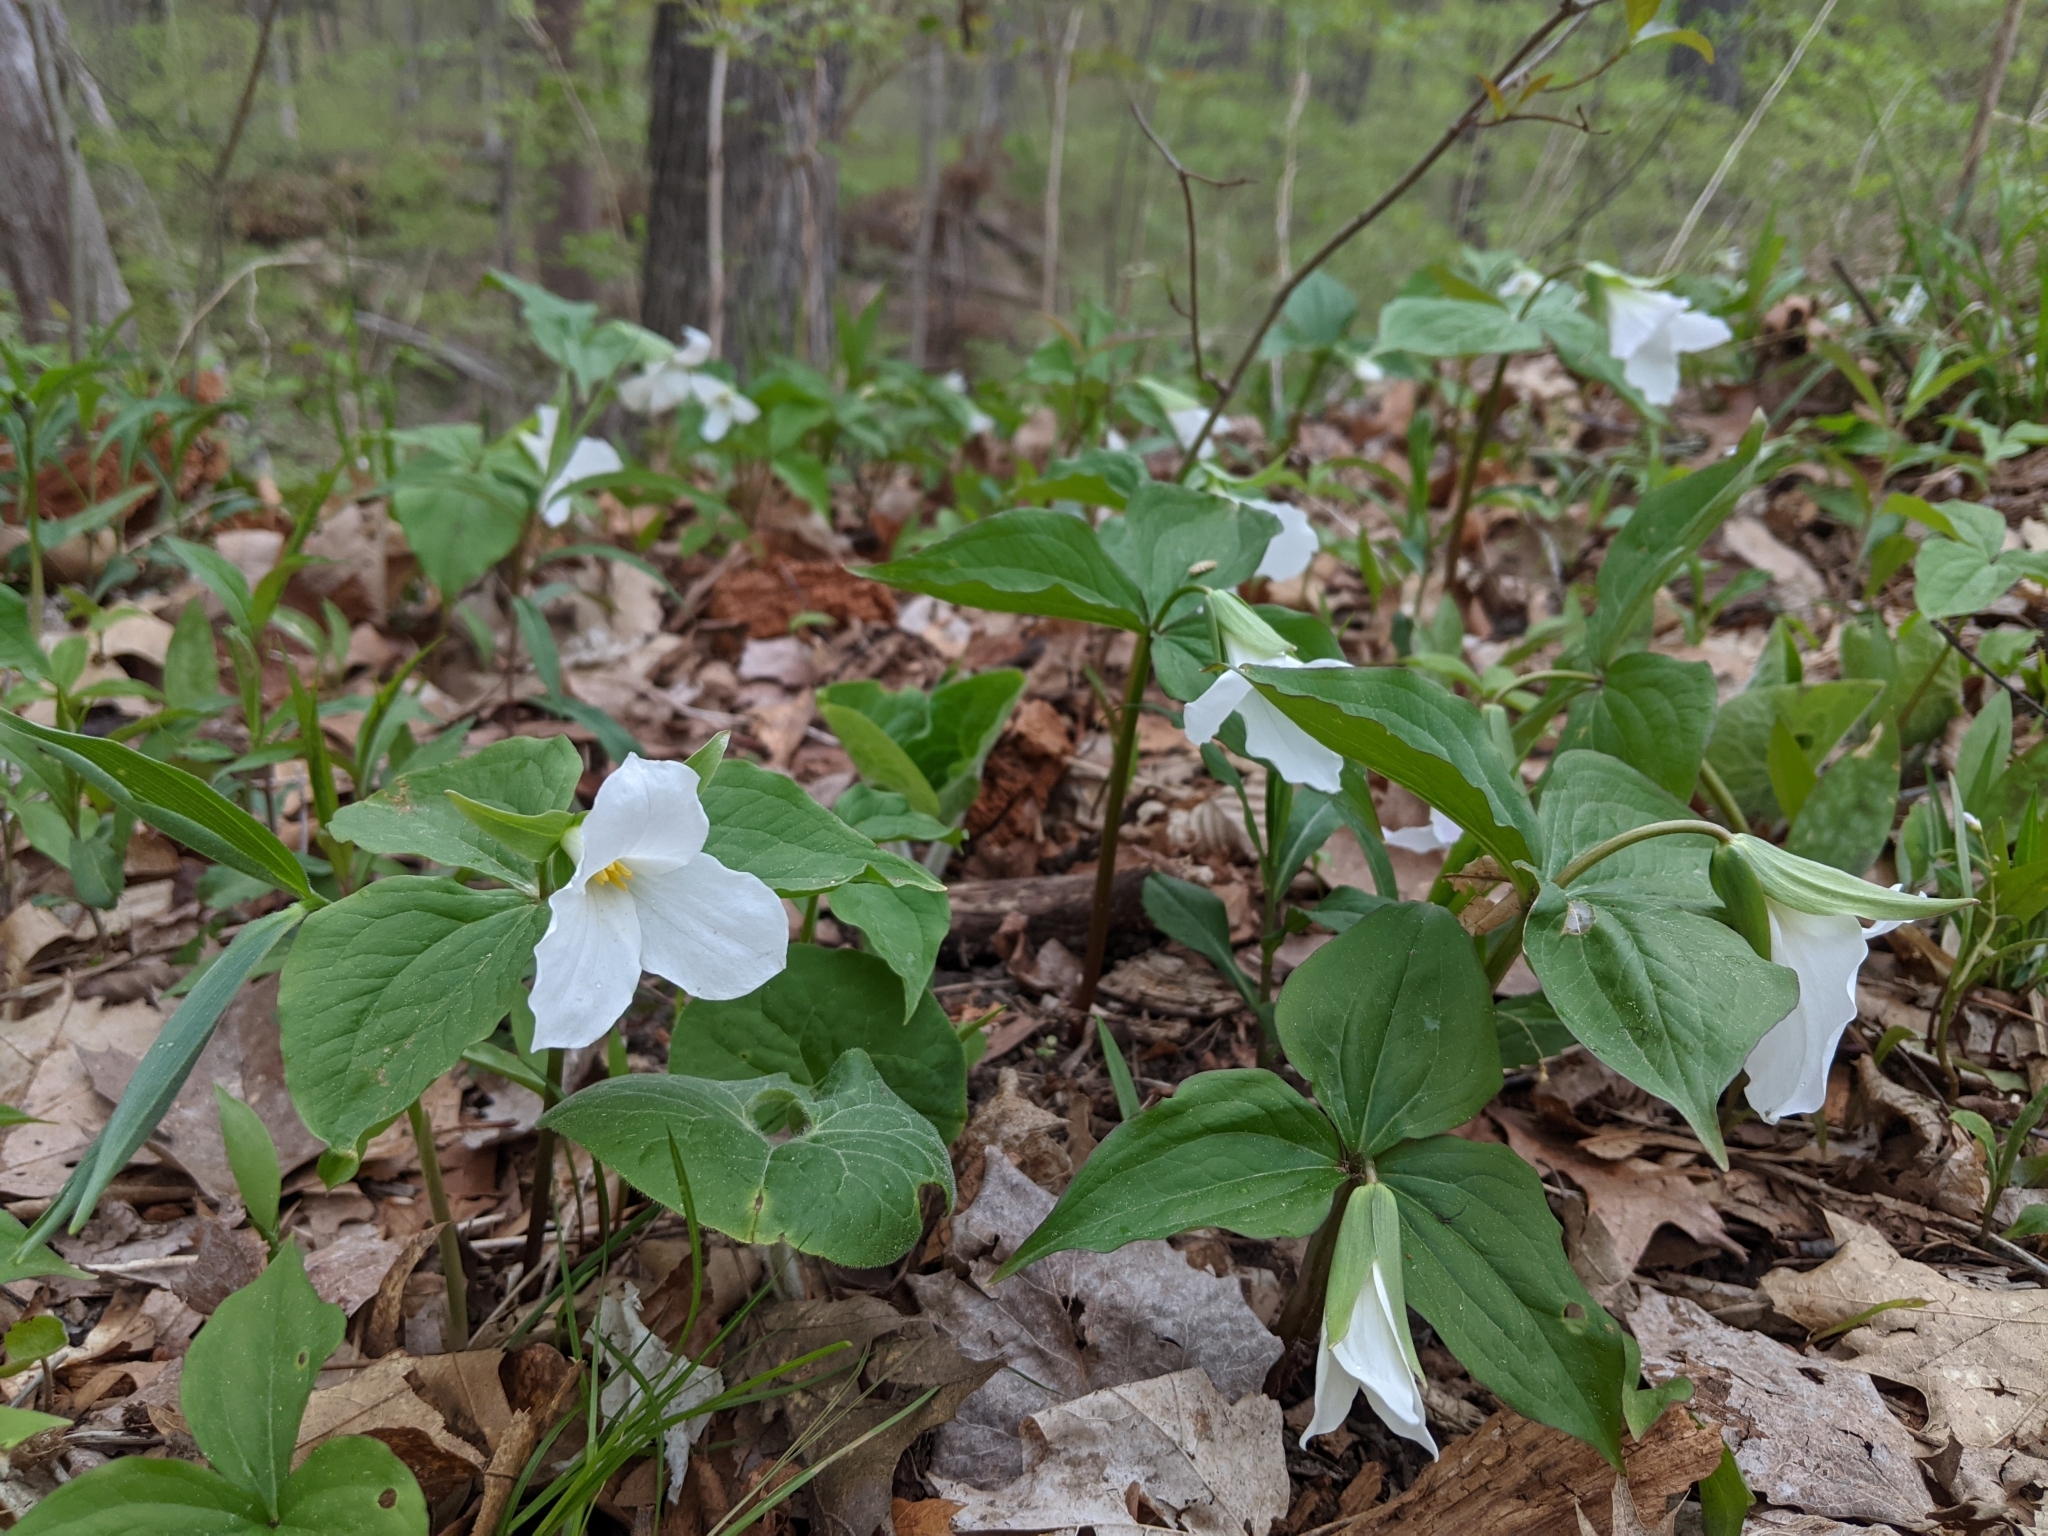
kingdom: Plantae
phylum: Tracheophyta
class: Liliopsida
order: Liliales
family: Melanthiaceae
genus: Trillium
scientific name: Trillium grandiflorum
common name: Great white trillium
